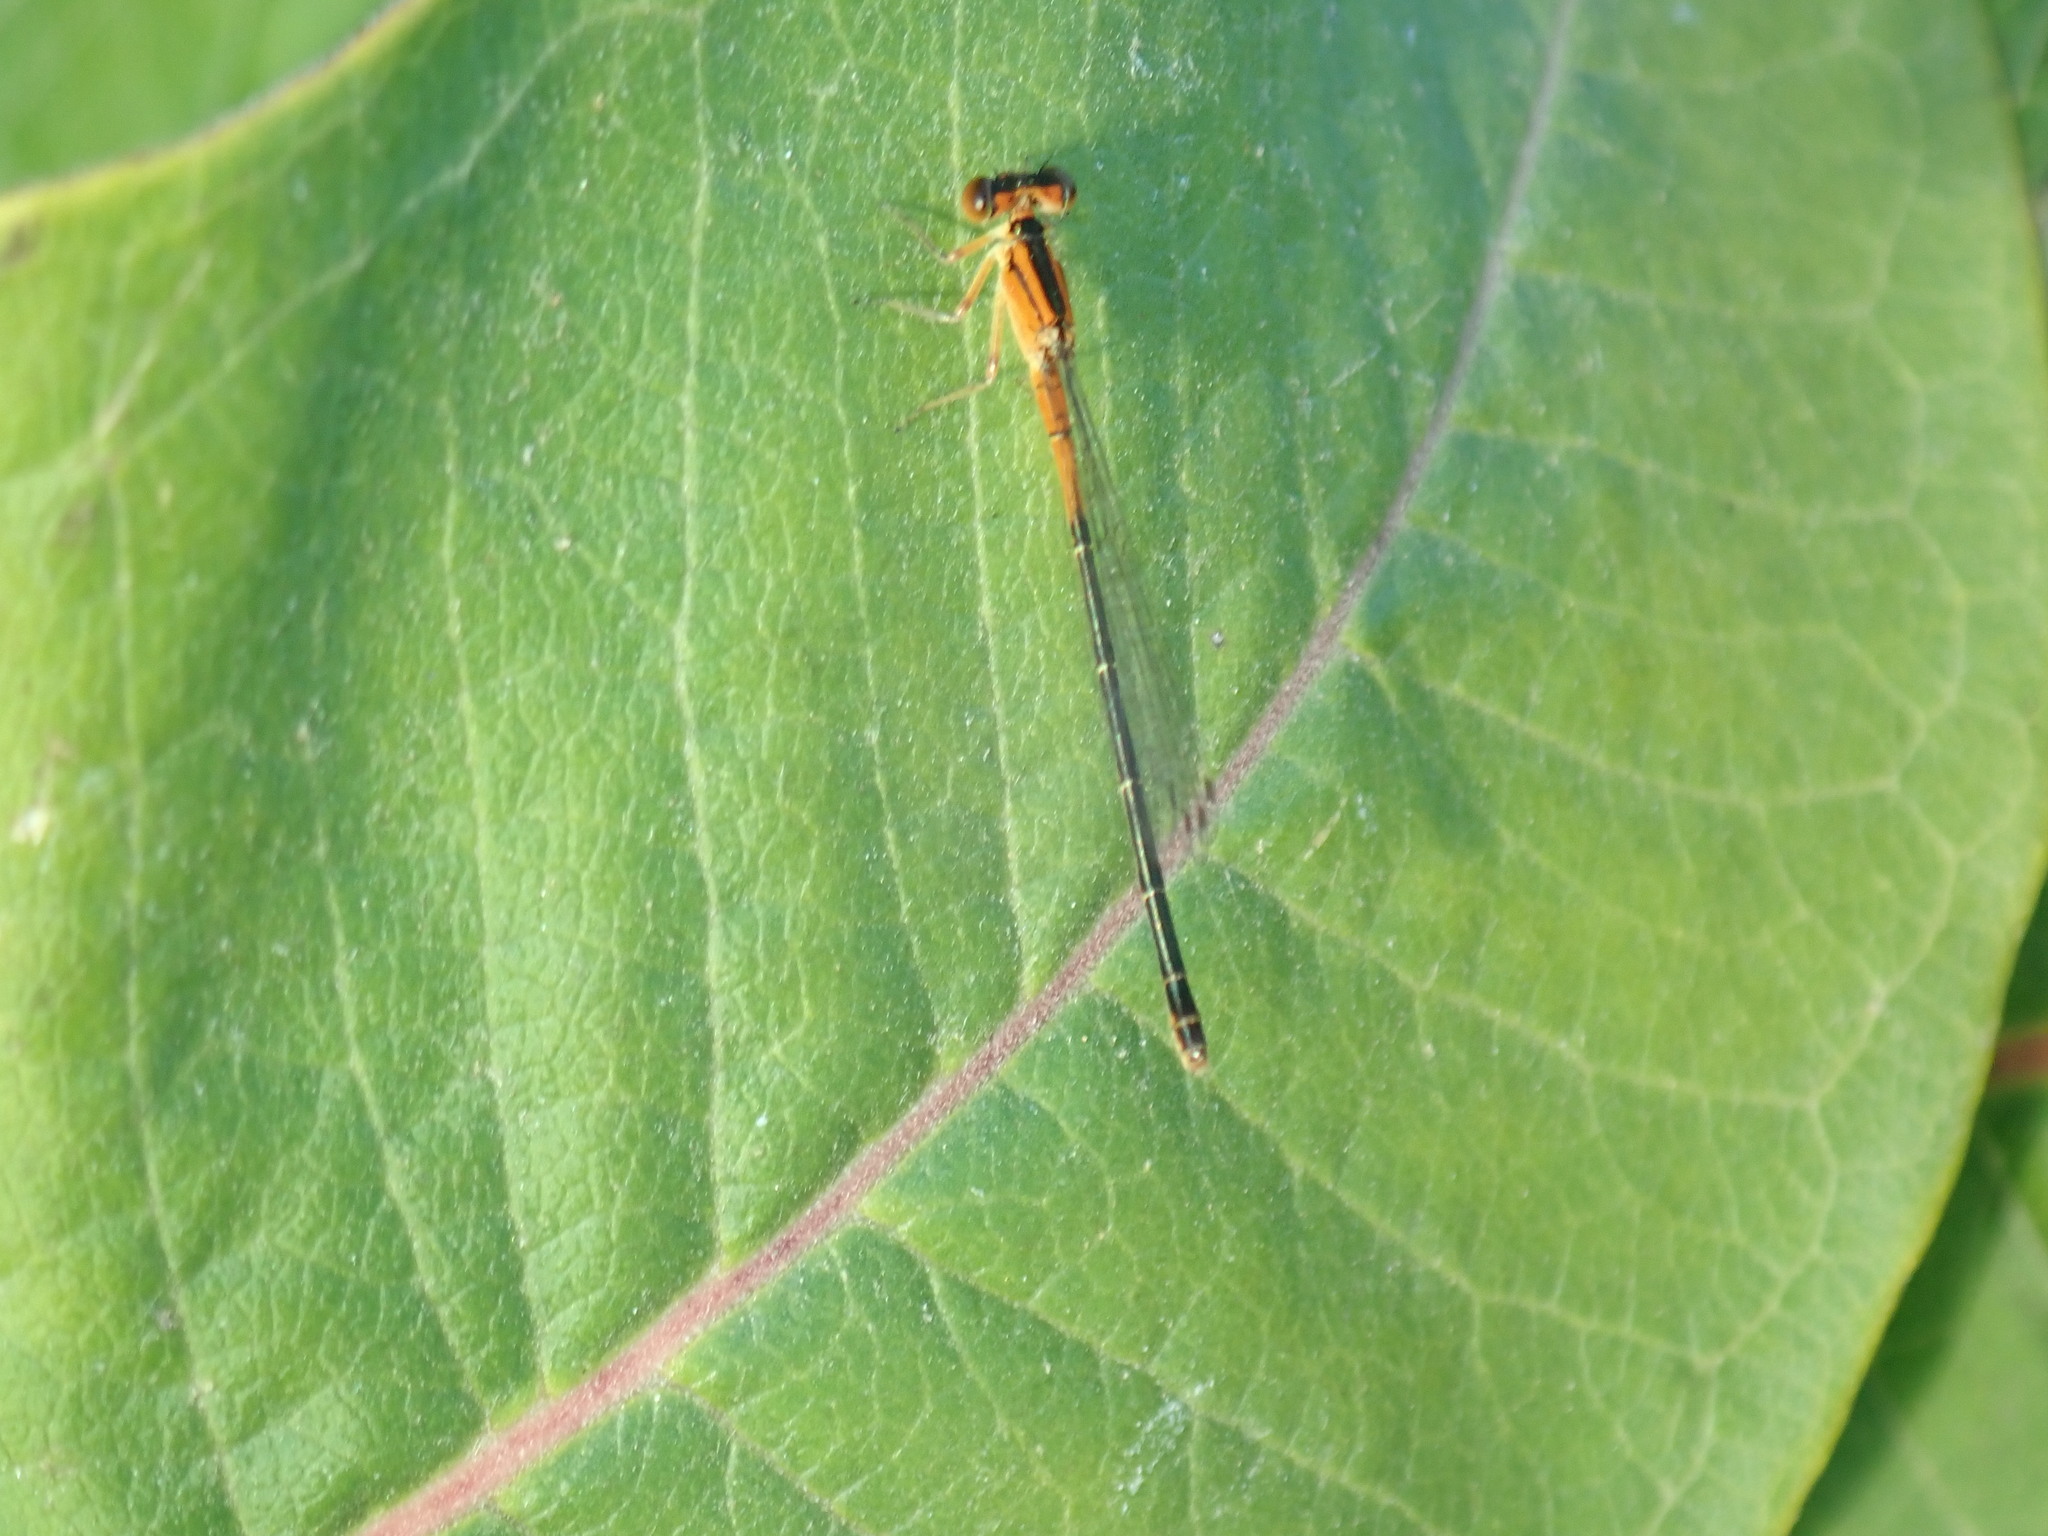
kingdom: Animalia
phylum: Arthropoda
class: Insecta
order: Odonata
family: Coenagrionidae
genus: Ischnura
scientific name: Ischnura verticalis
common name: Eastern forktail
